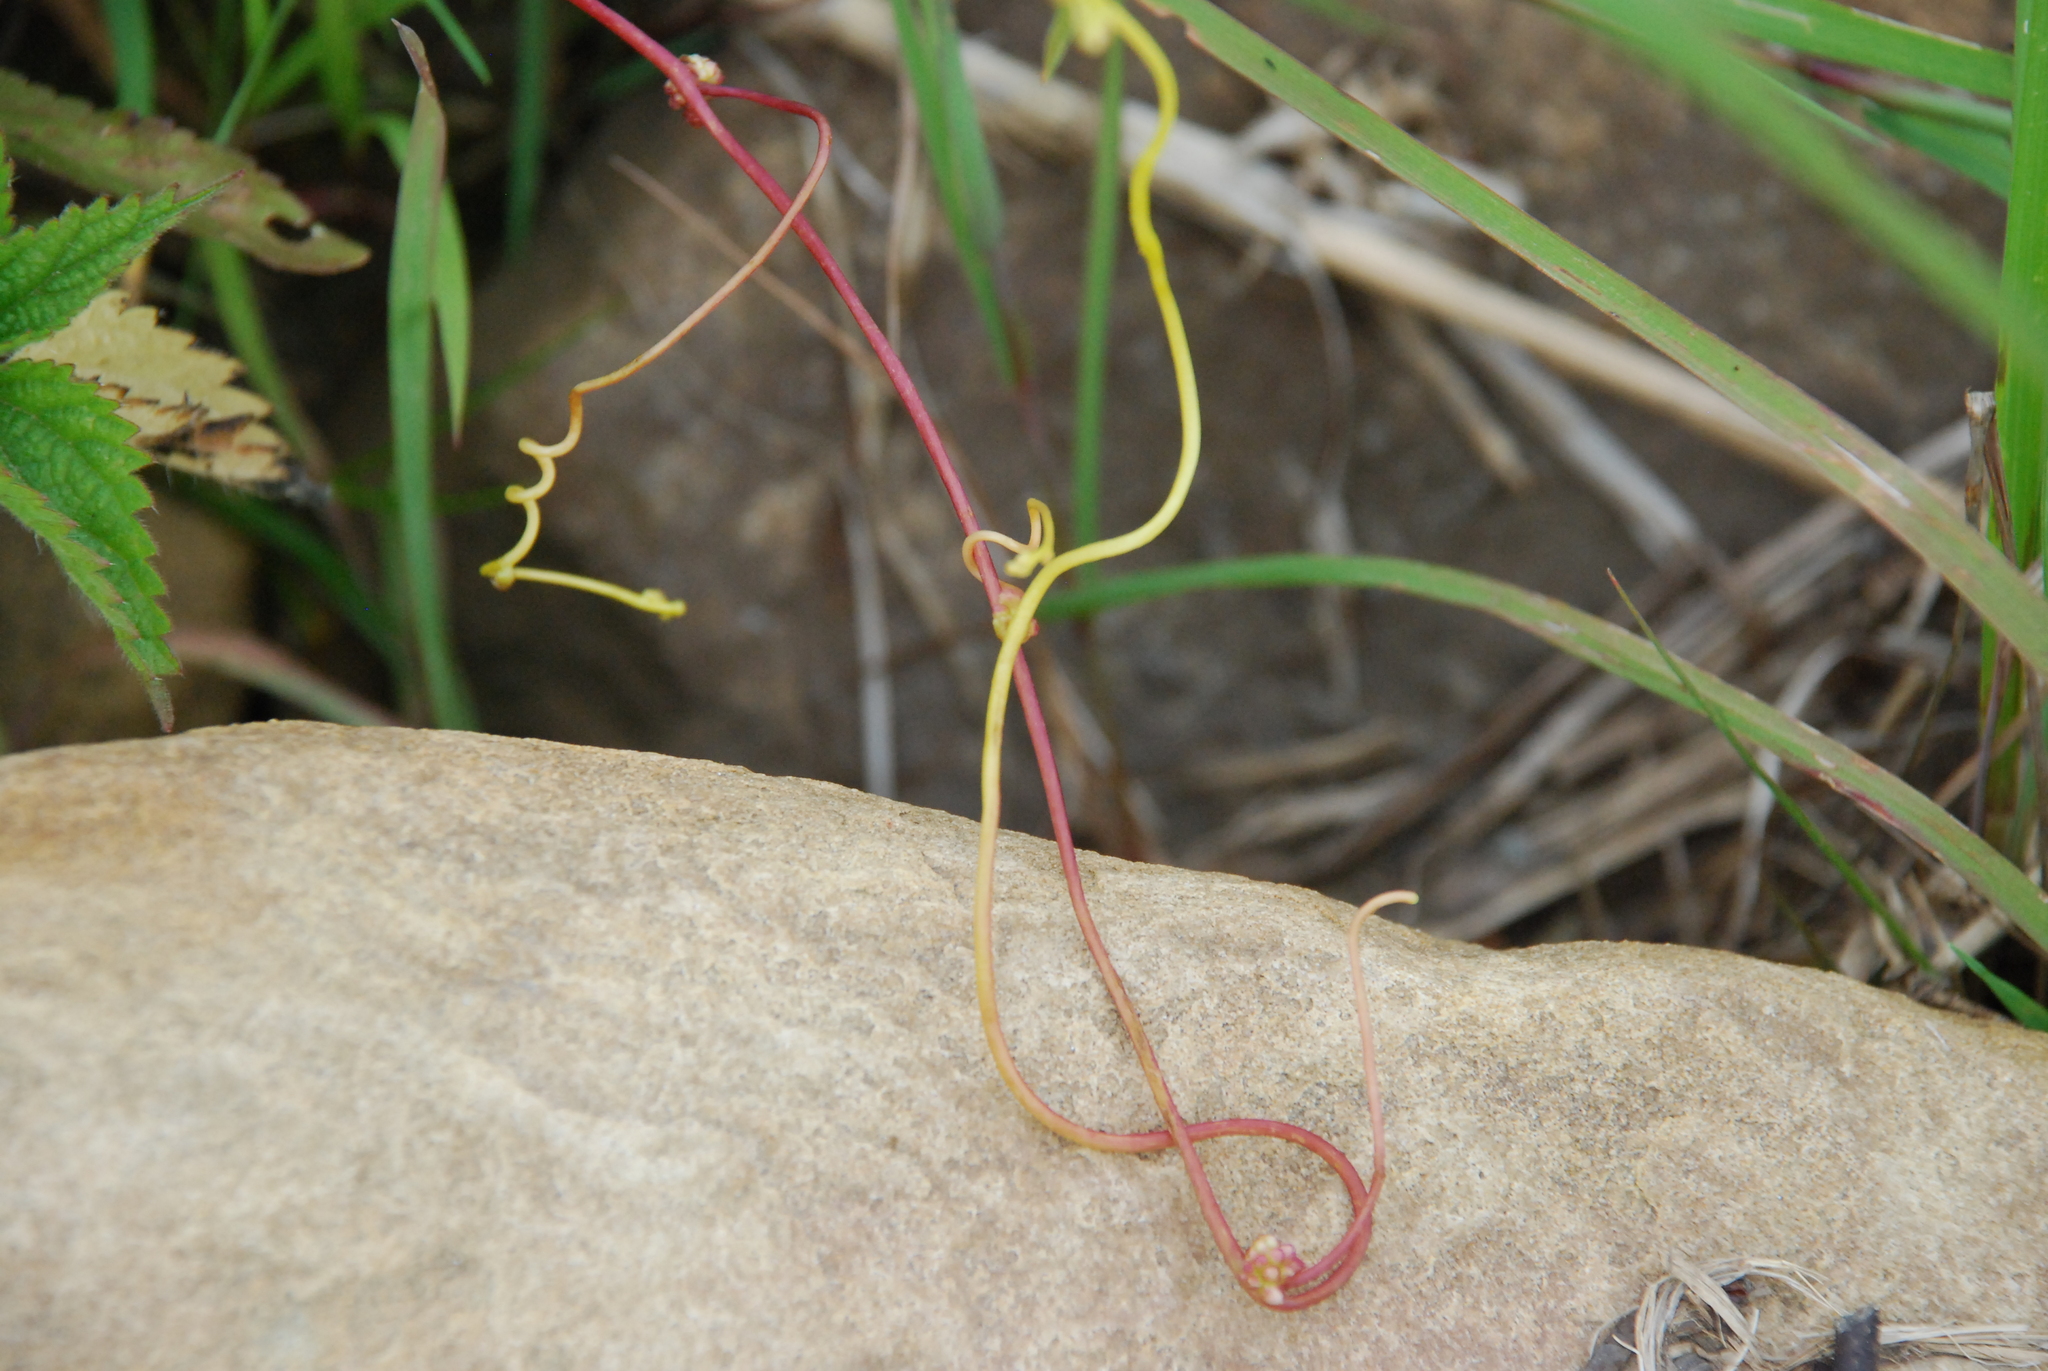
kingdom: Plantae
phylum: Tracheophyta
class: Magnoliopsida
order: Solanales
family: Convolvulaceae
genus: Cuscuta
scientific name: Cuscuta europaea
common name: Greater dodder
